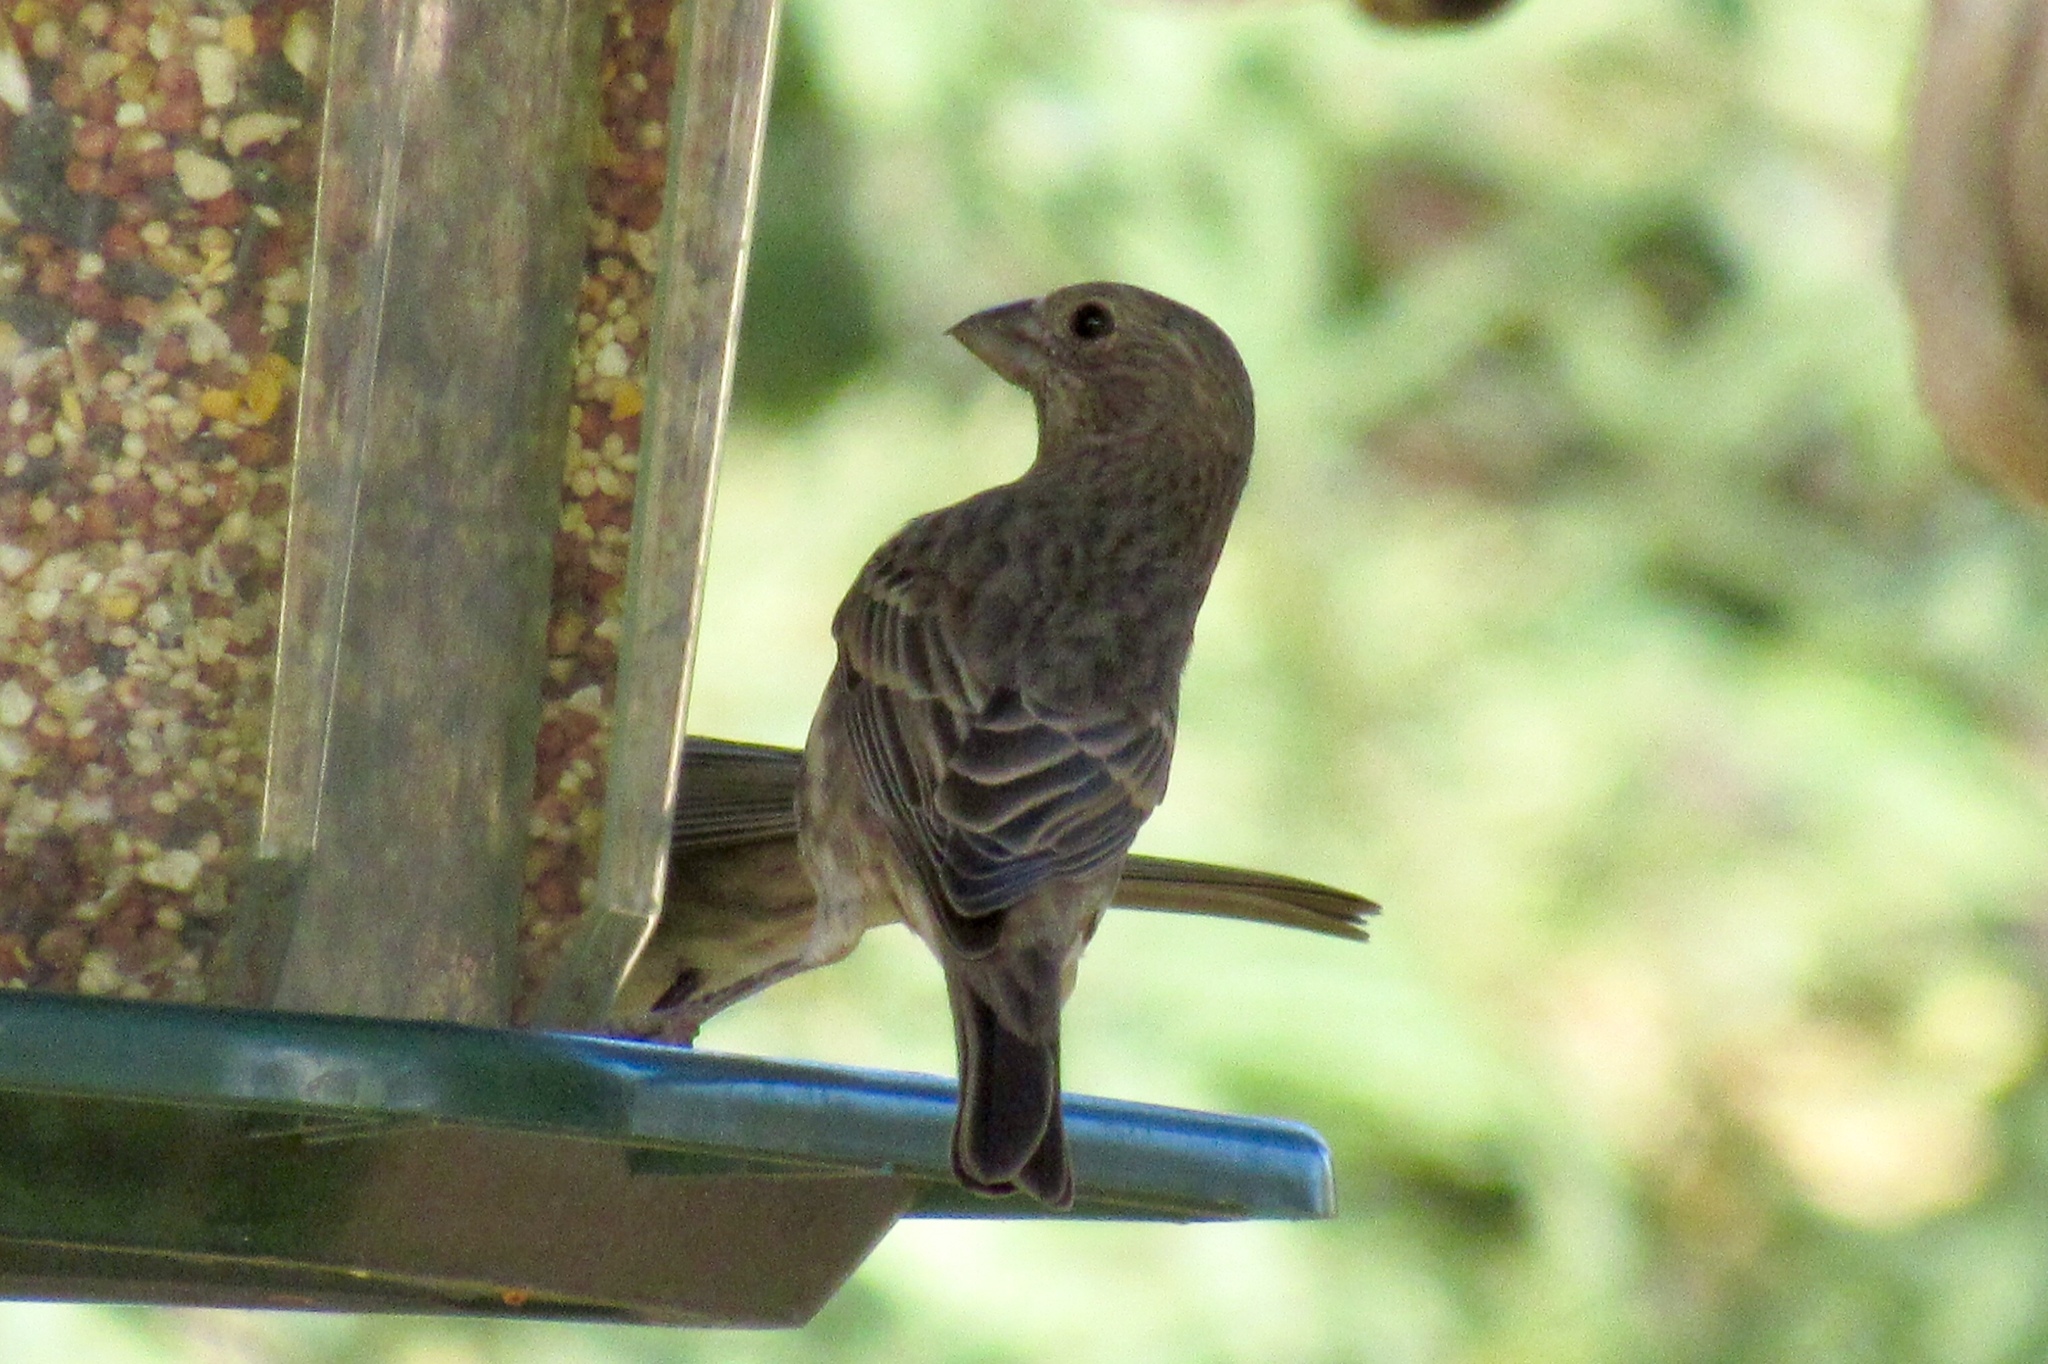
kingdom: Animalia
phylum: Chordata
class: Aves
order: Passeriformes
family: Fringillidae
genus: Haemorhous
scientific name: Haemorhous mexicanus
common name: House finch
